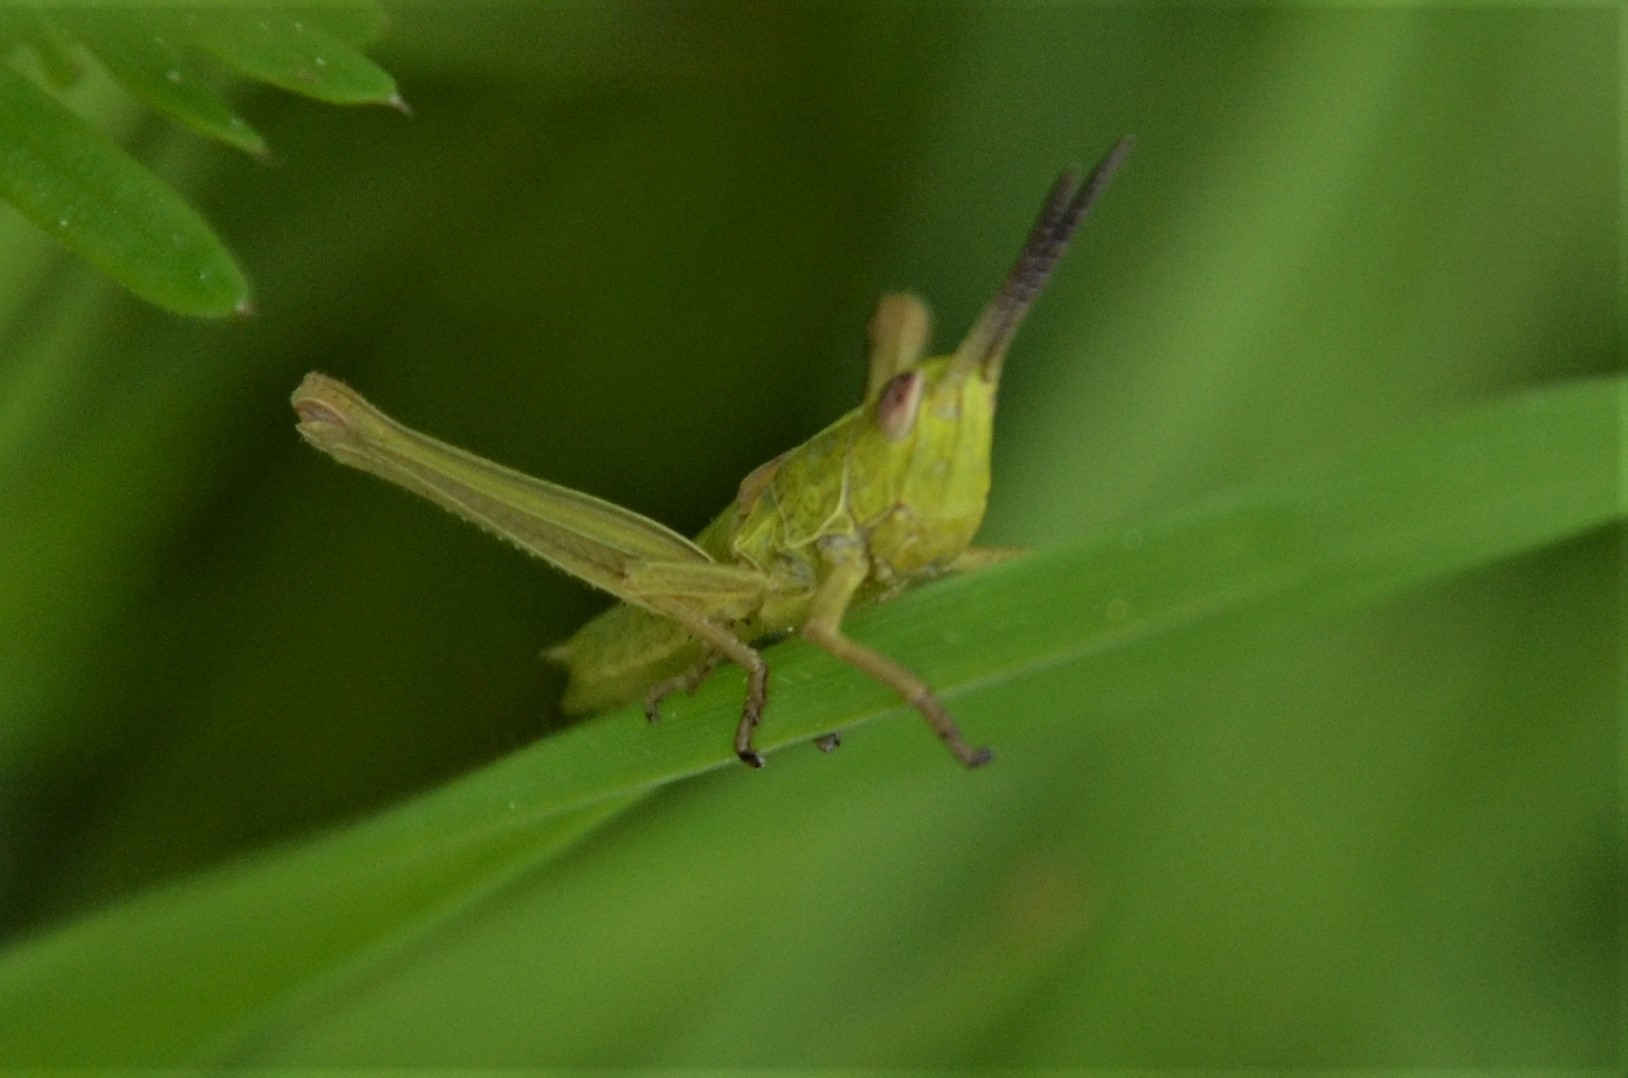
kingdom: Animalia
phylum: Arthropoda
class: Insecta
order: Orthoptera
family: Acrididae
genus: Euthystira
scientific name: Euthystira brachyptera
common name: Small gold grasshopper
